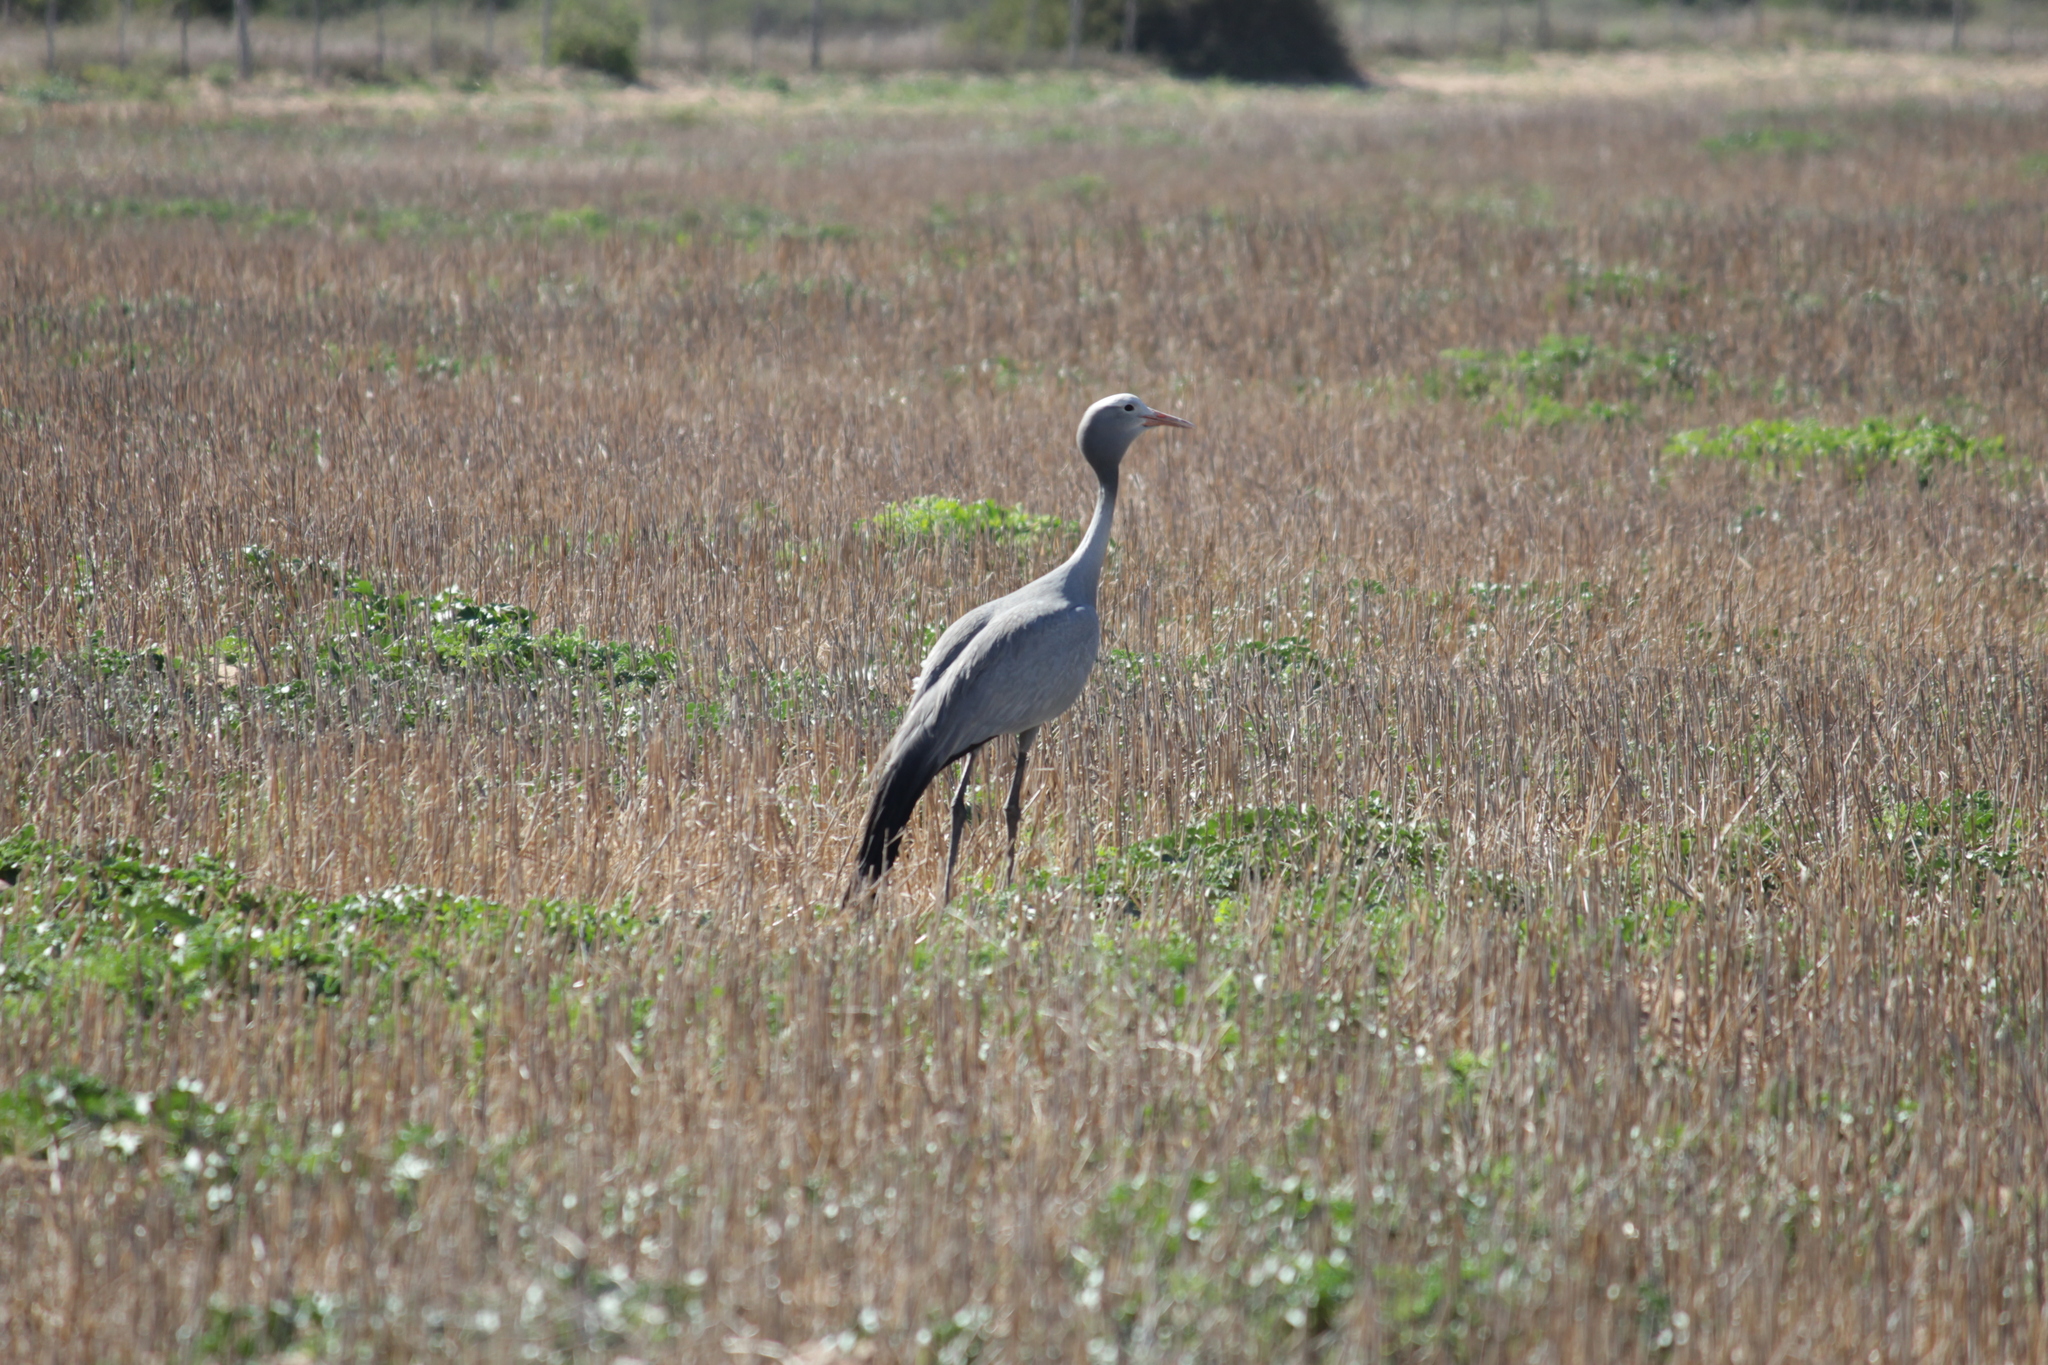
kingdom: Animalia
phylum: Chordata
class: Aves
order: Gruiformes
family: Gruidae
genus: Anthropoides
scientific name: Anthropoides paradiseus
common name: Blue crane
